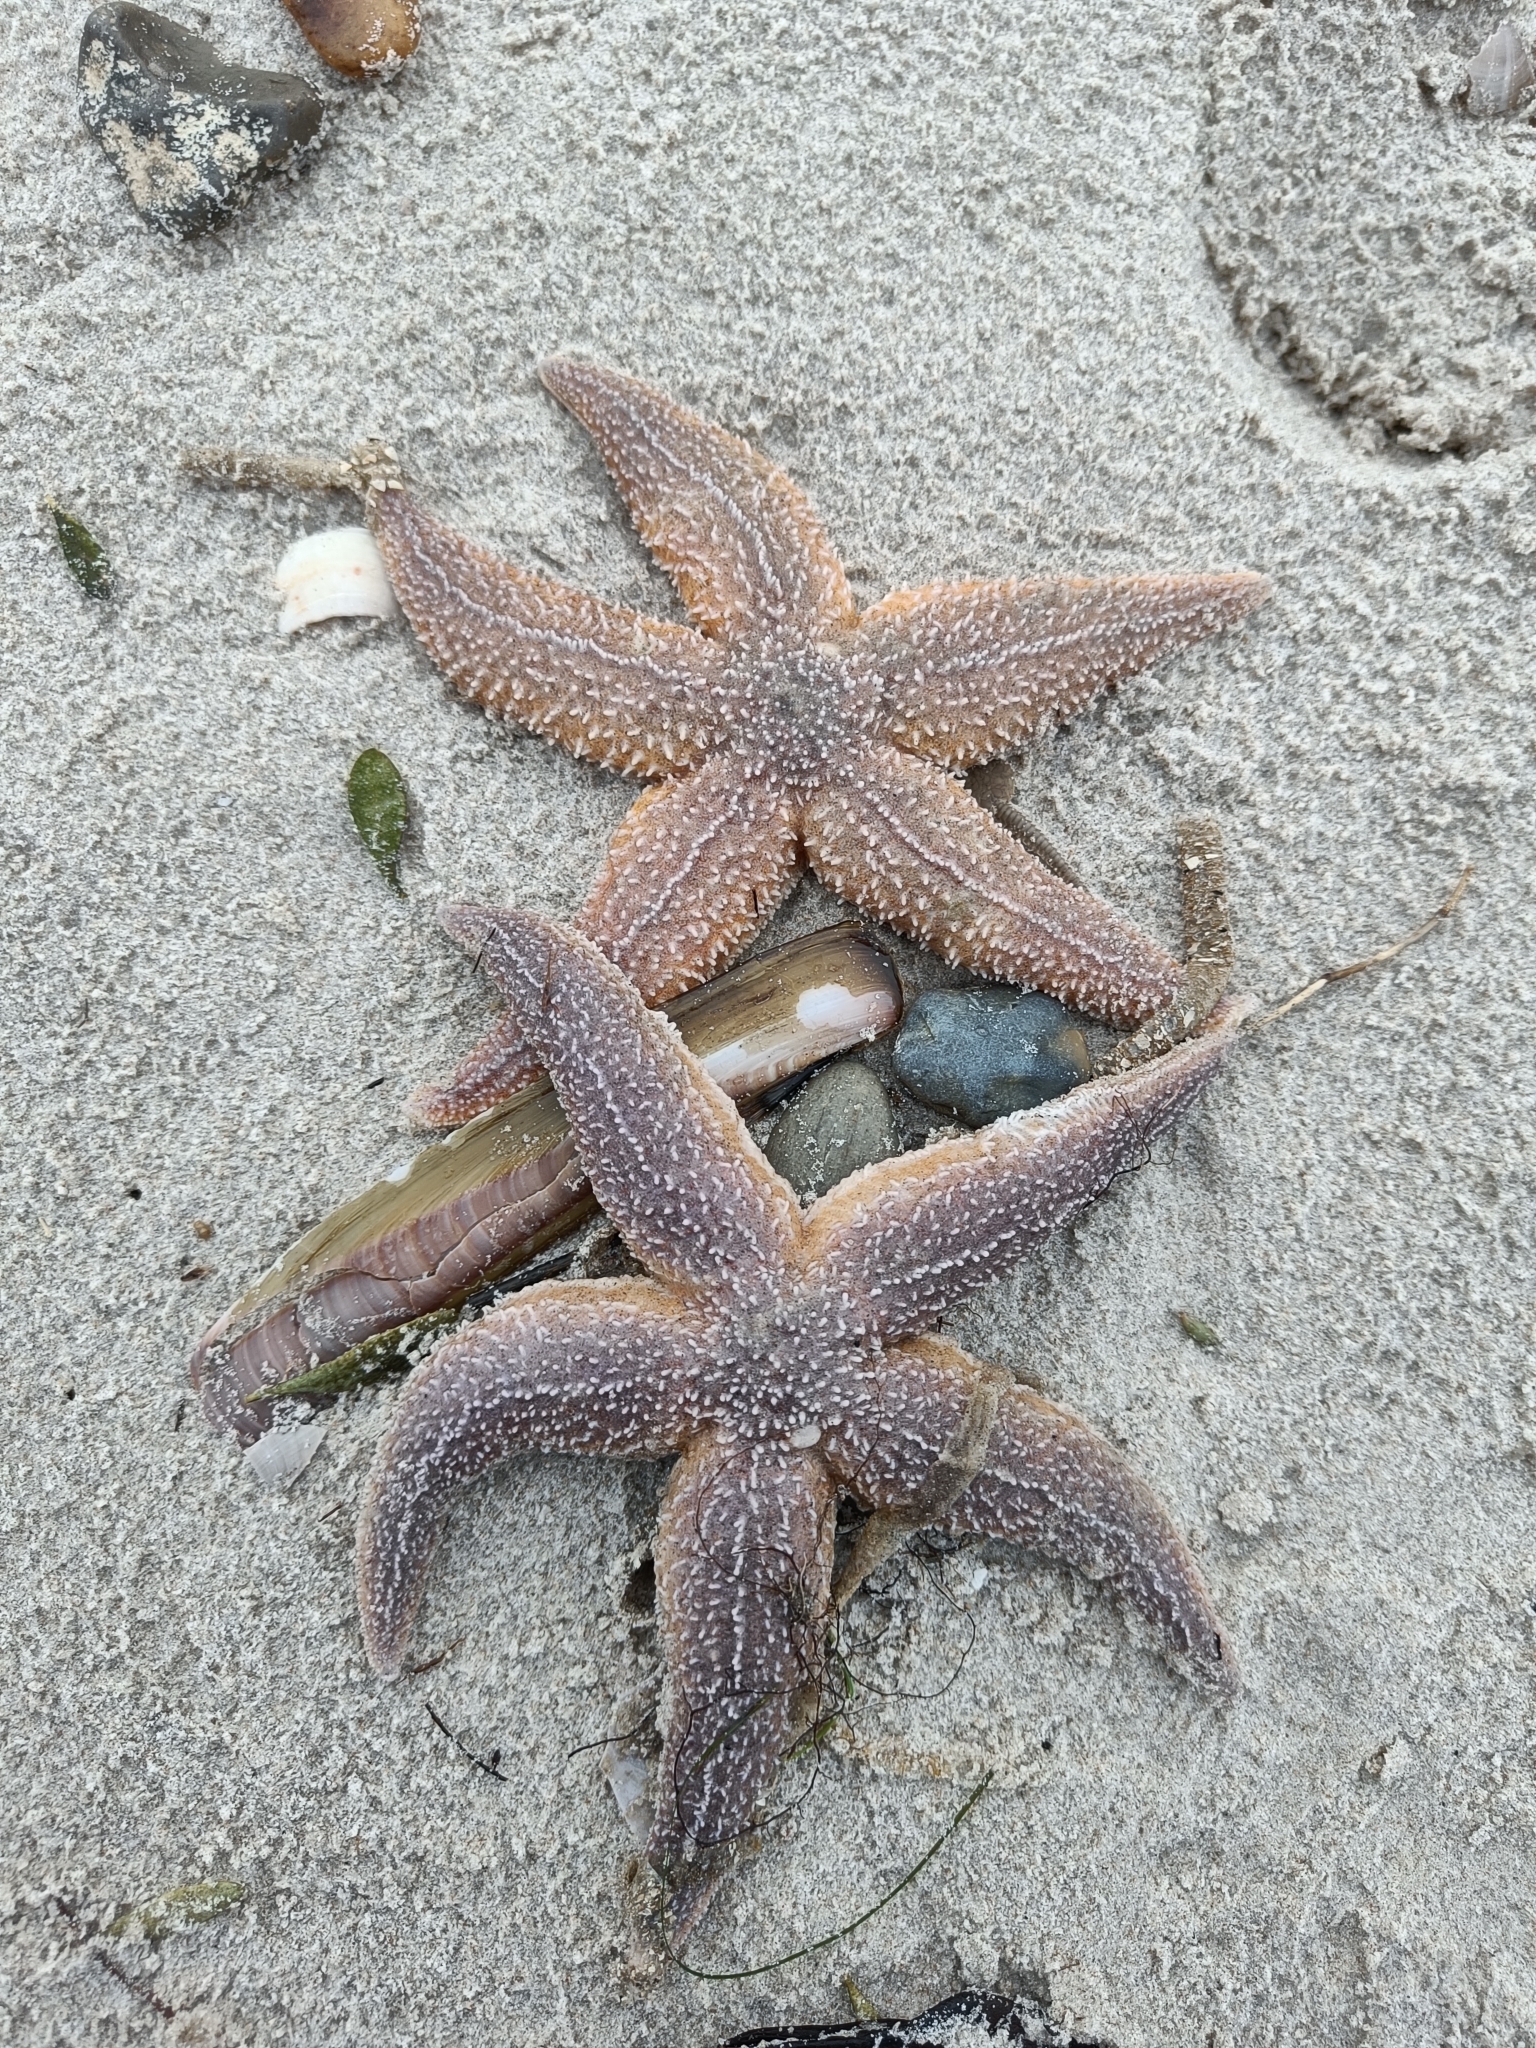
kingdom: Animalia
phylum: Echinodermata
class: Asteroidea
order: Forcipulatida
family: Asteriidae
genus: Asterias
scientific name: Asterias rubens
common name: Common starfish
